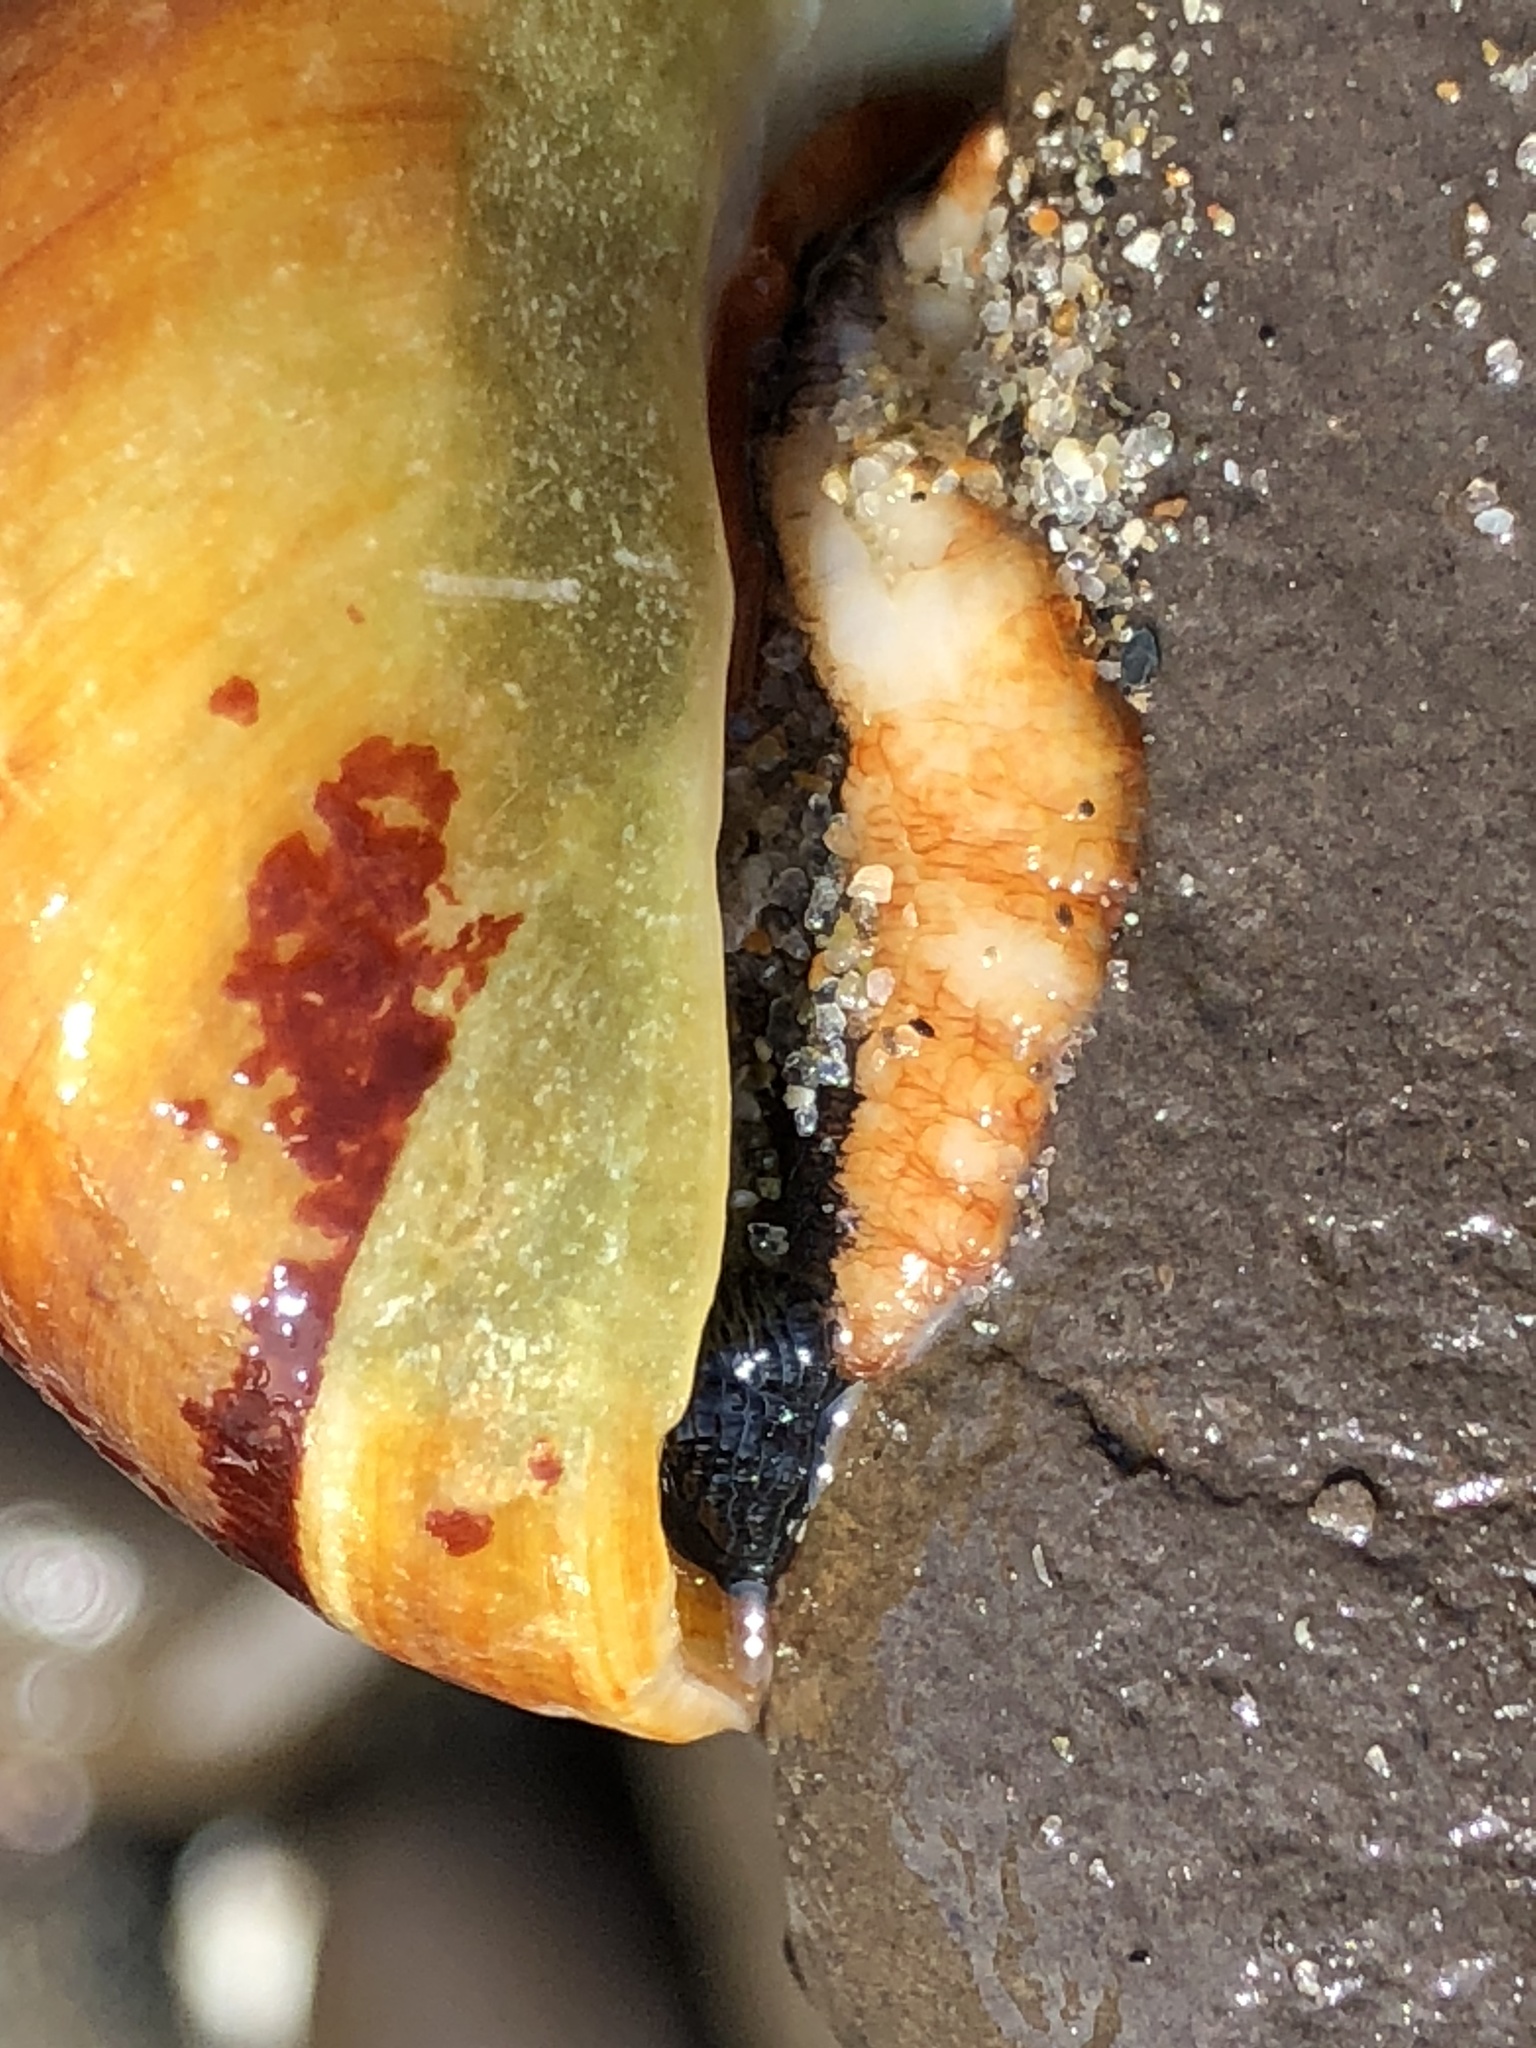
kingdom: Animalia
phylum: Mollusca
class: Gastropoda
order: Trochida
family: Tegulidae
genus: Tegula
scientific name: Tegula brunnea
